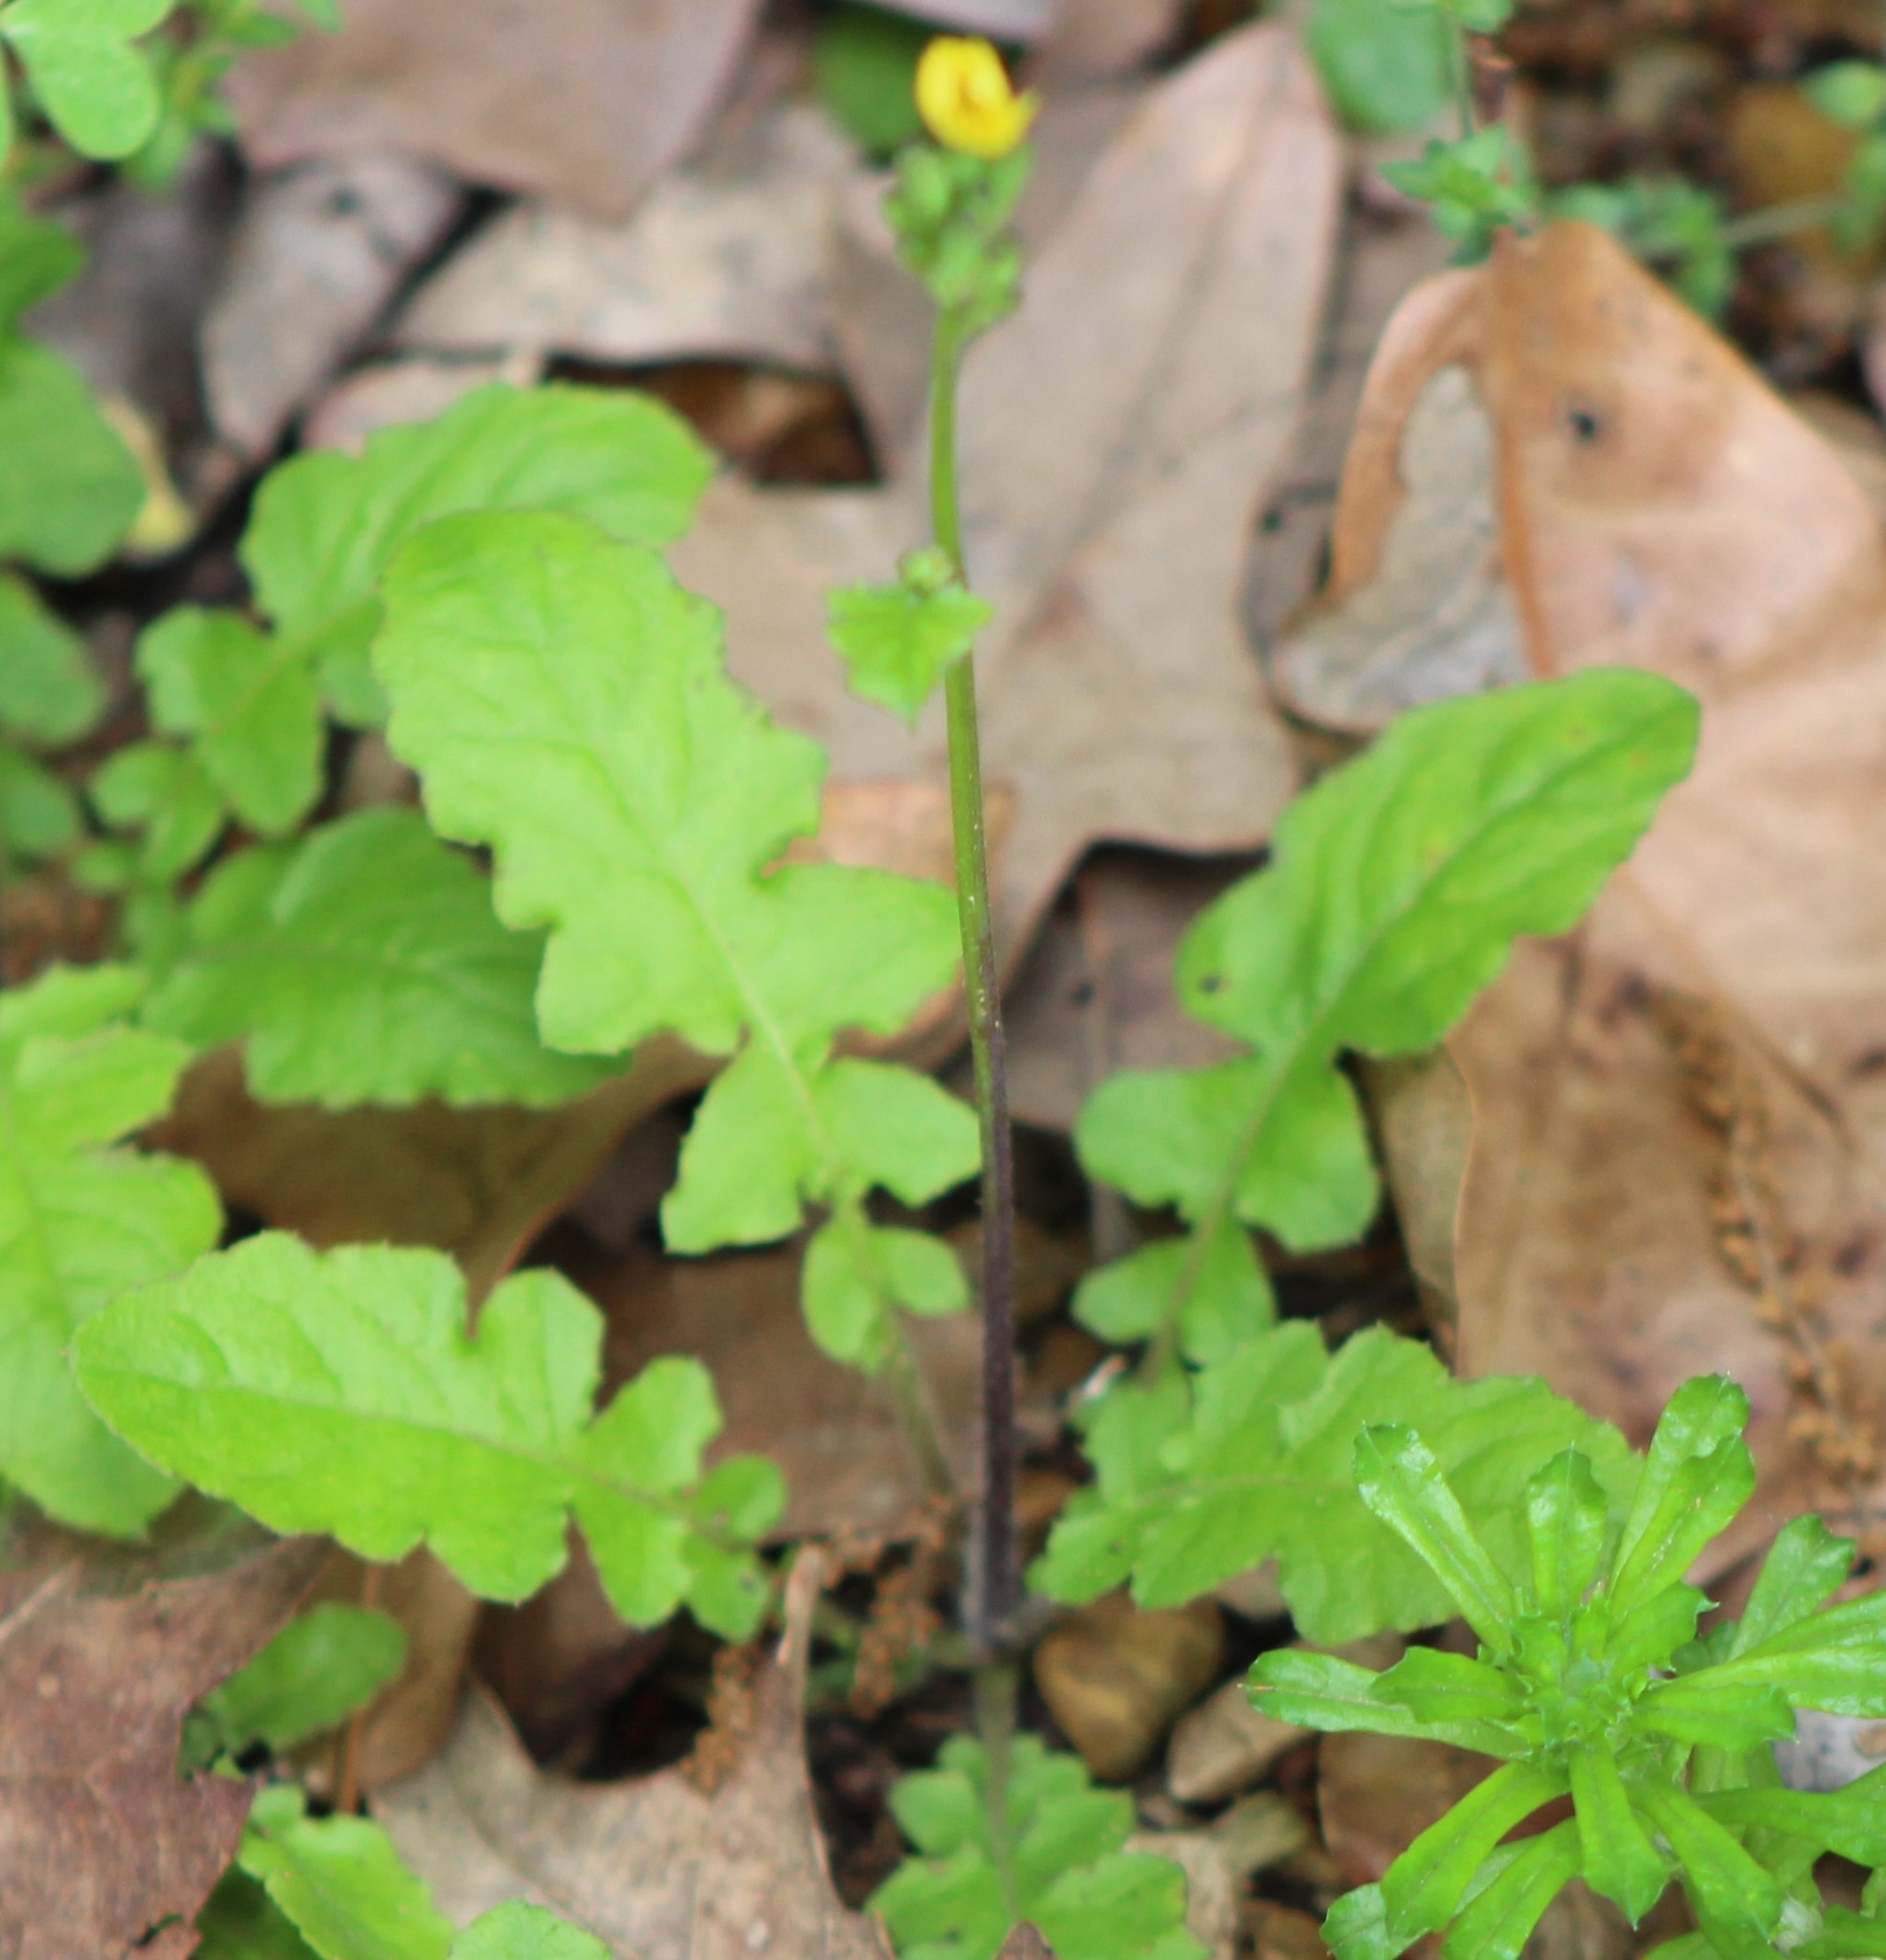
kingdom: Plantae
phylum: Tracheophyta
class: Magnoliopsida
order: Asterales
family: Asteraceae
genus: Youngia
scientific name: Youngia japonica
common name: Oriental false hawksbeard
